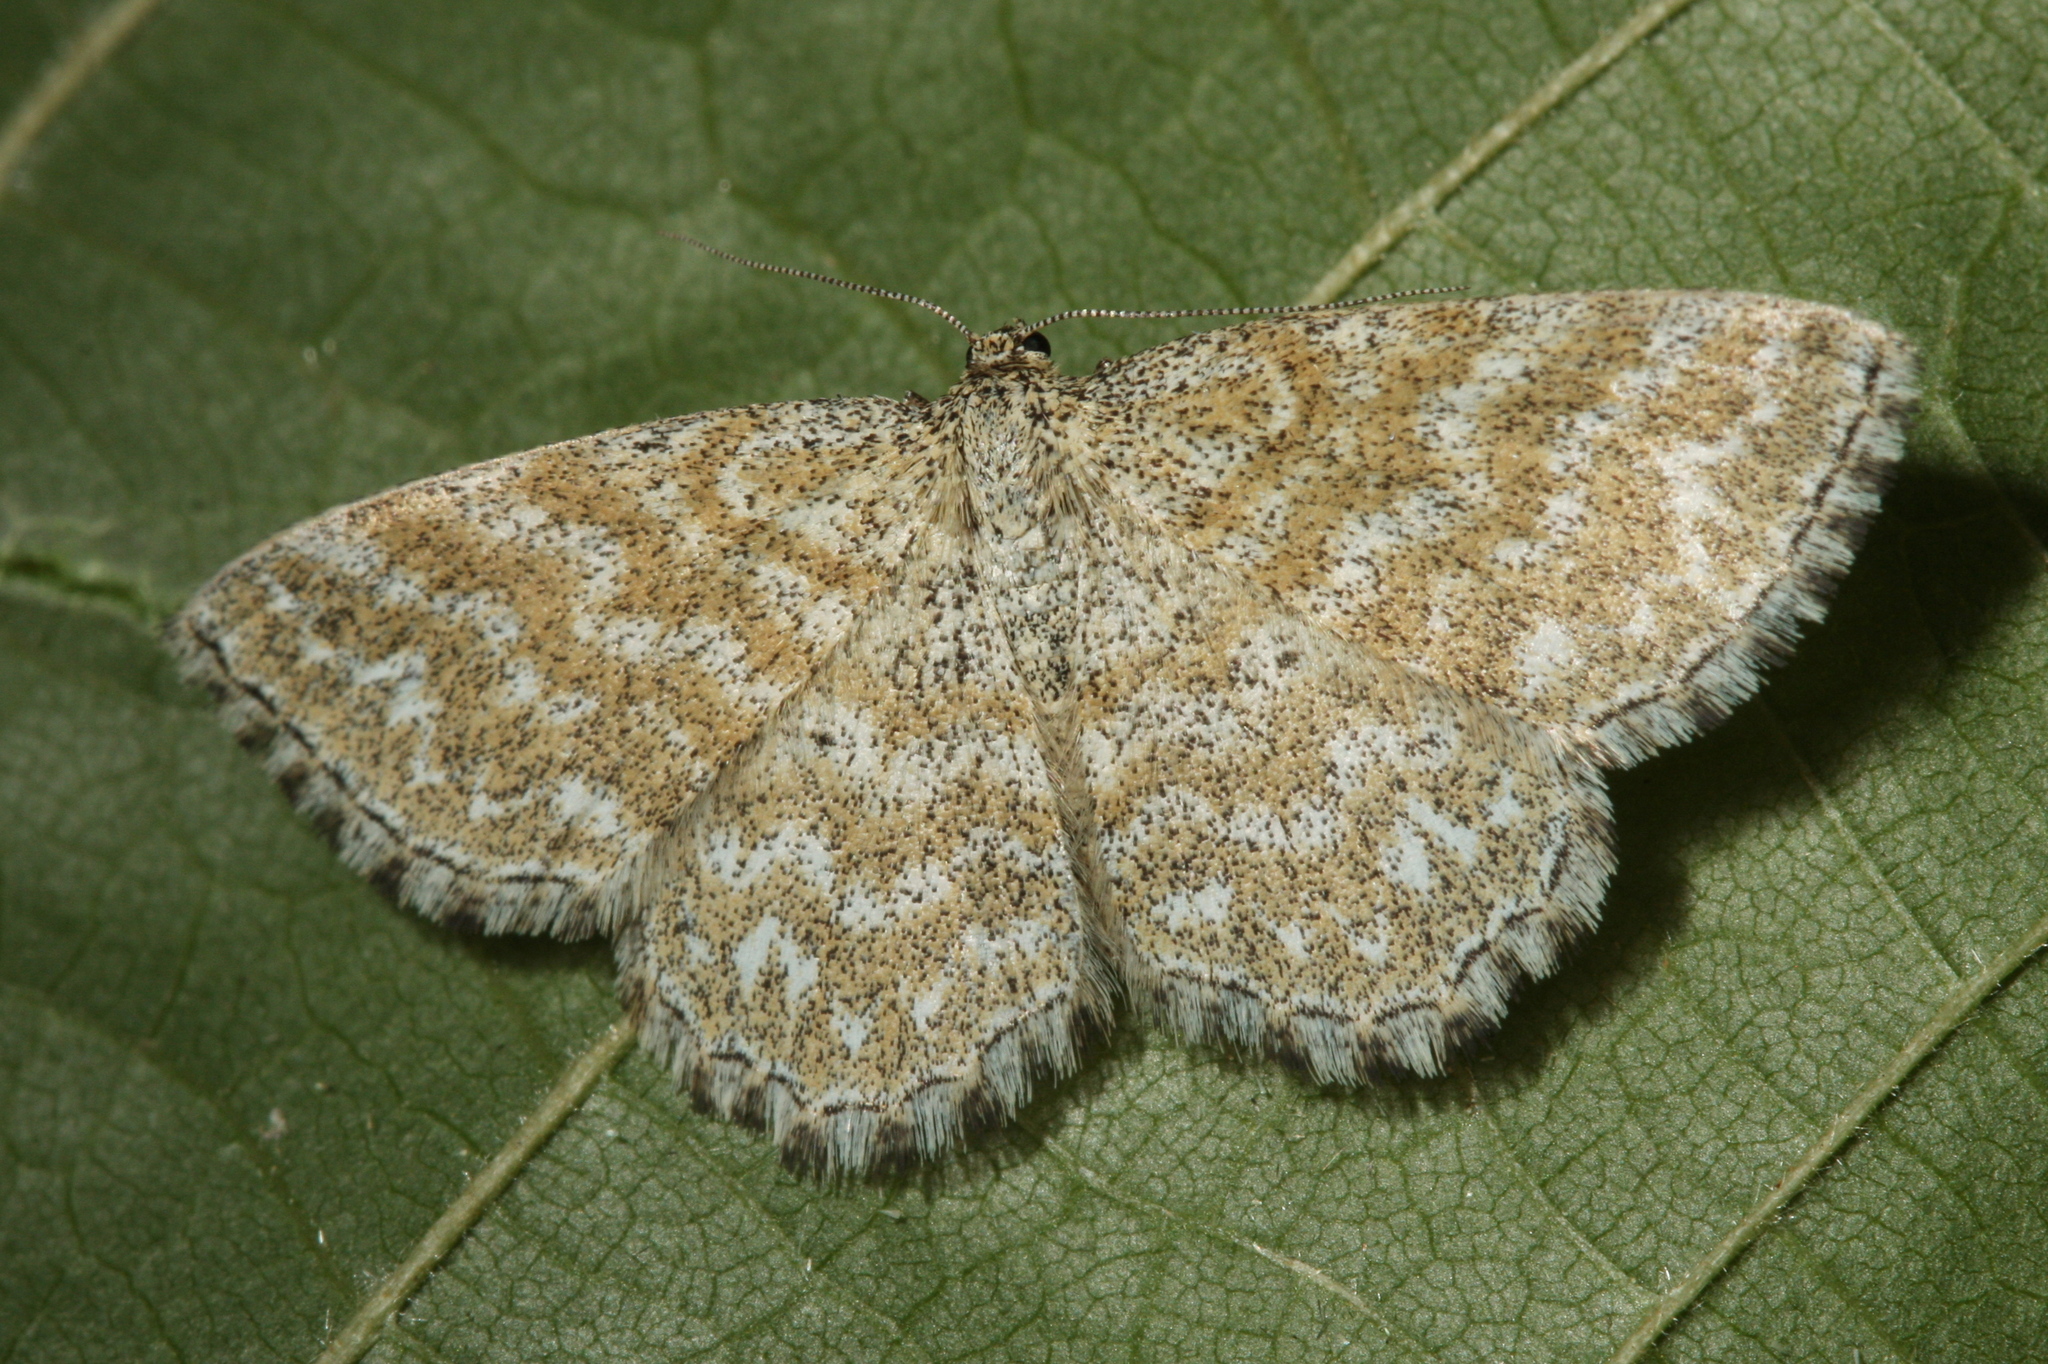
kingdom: Animalia
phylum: Arthropoda
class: Insecta
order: Lepidoptera
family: Geometridae
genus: Scopula
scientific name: Scopula immorata
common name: Lewes wave
